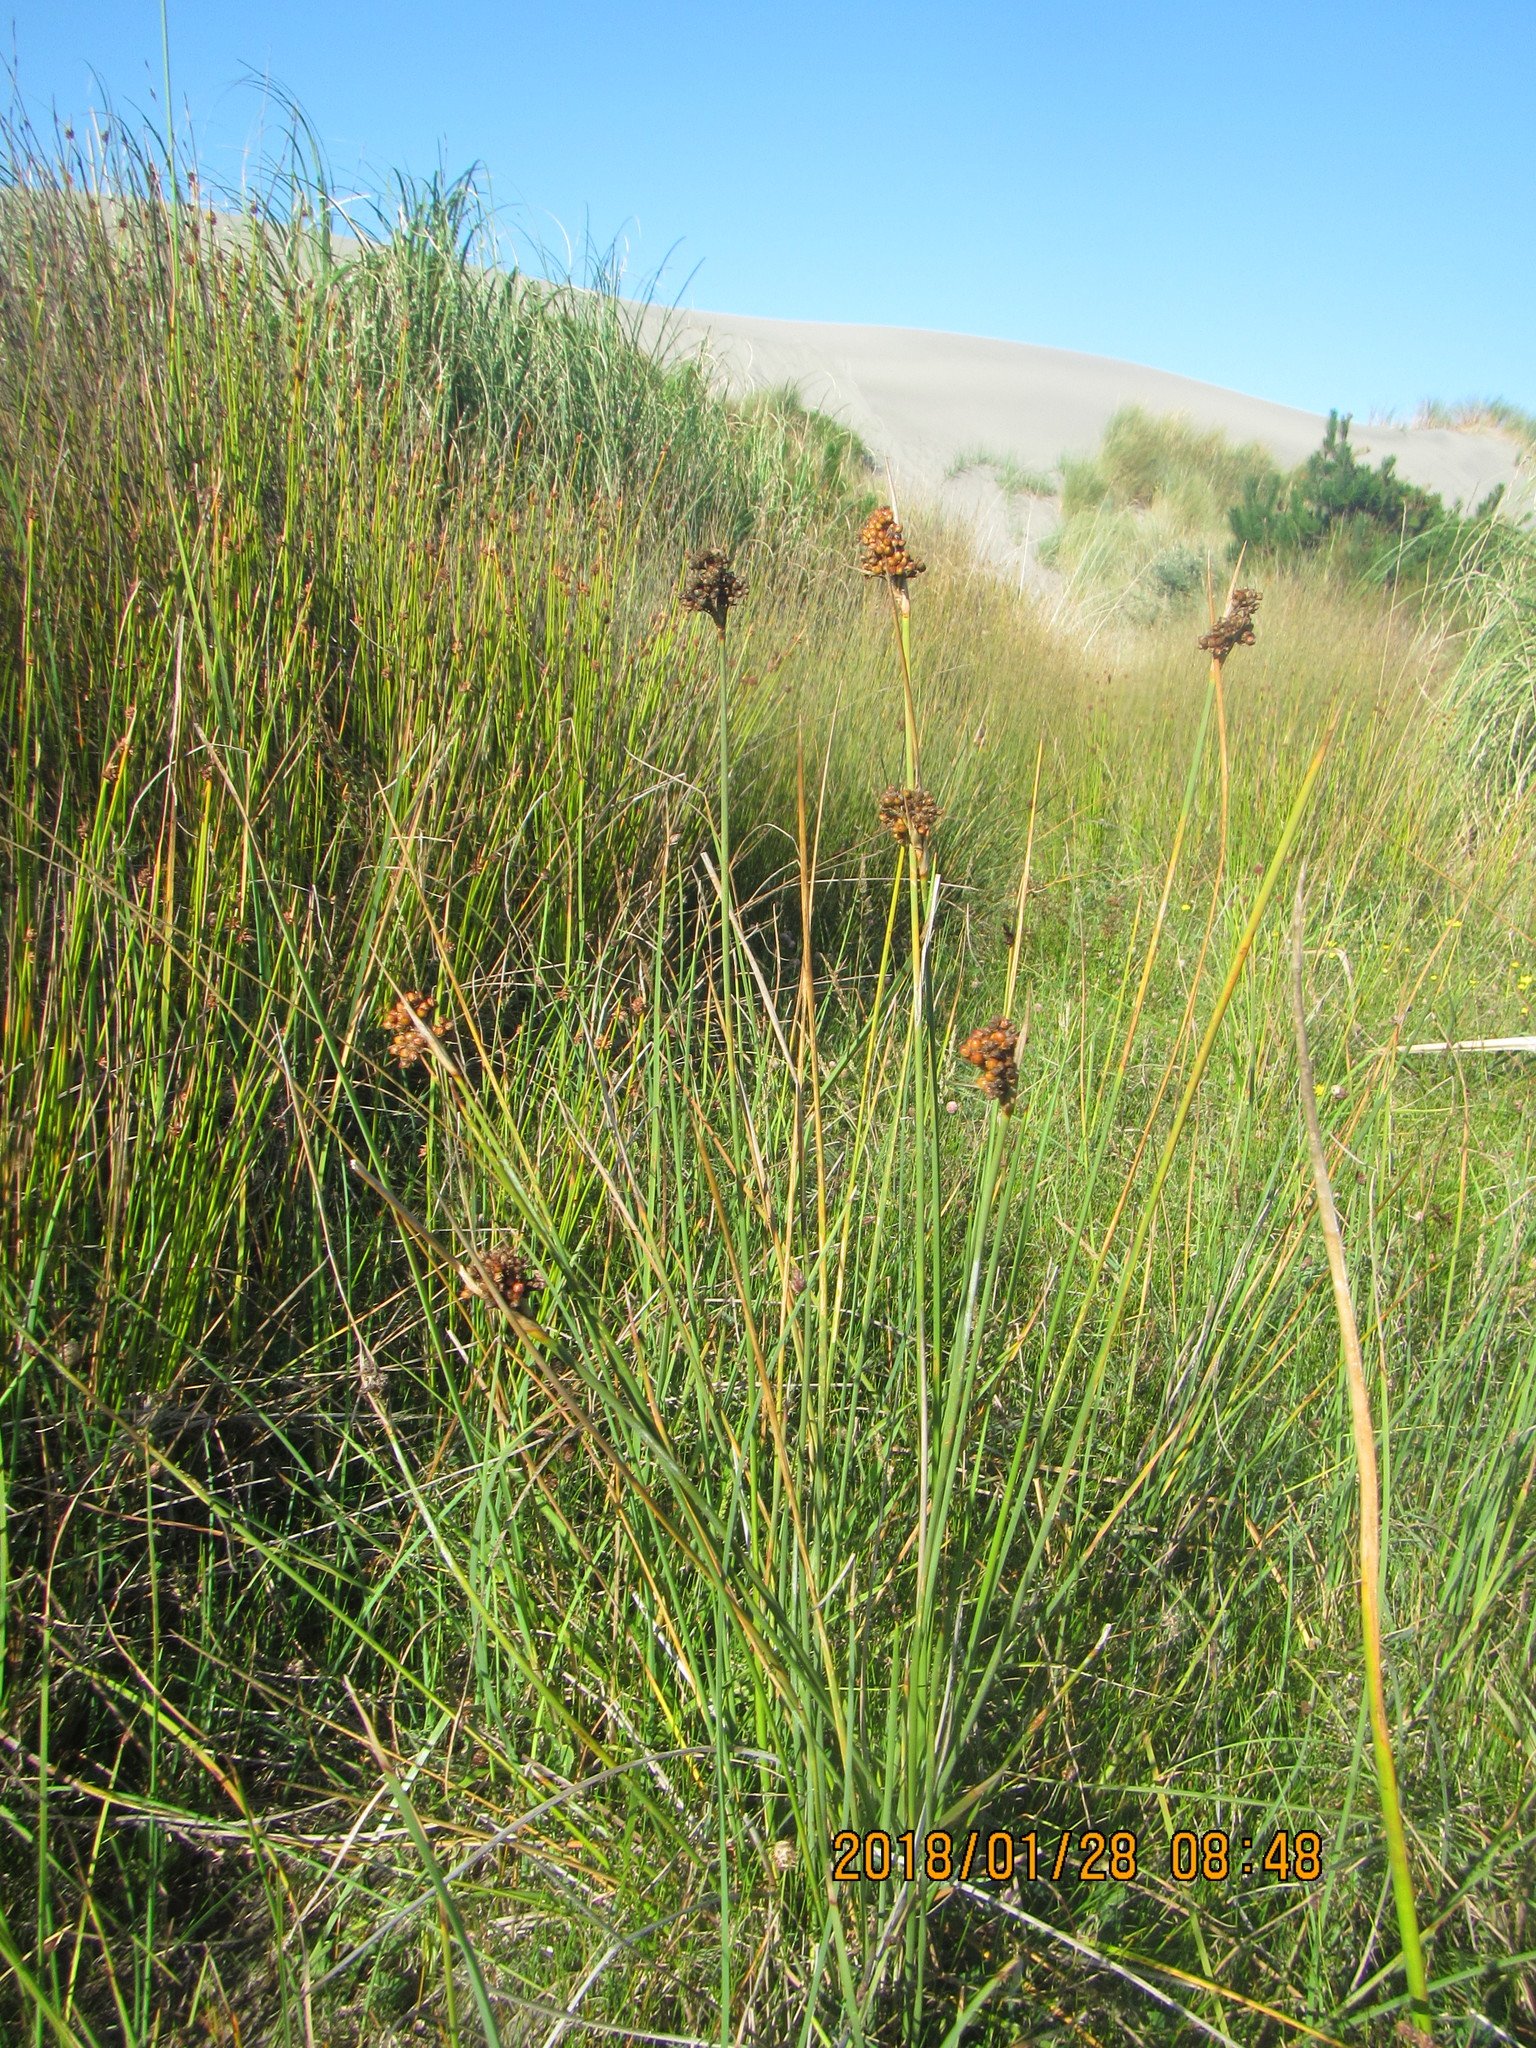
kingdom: Plantae
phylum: Tracheophyta
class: Liliopsida
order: Poales
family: Juncaceae
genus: Juncus
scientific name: Juncus acutus
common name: Sharp rush
